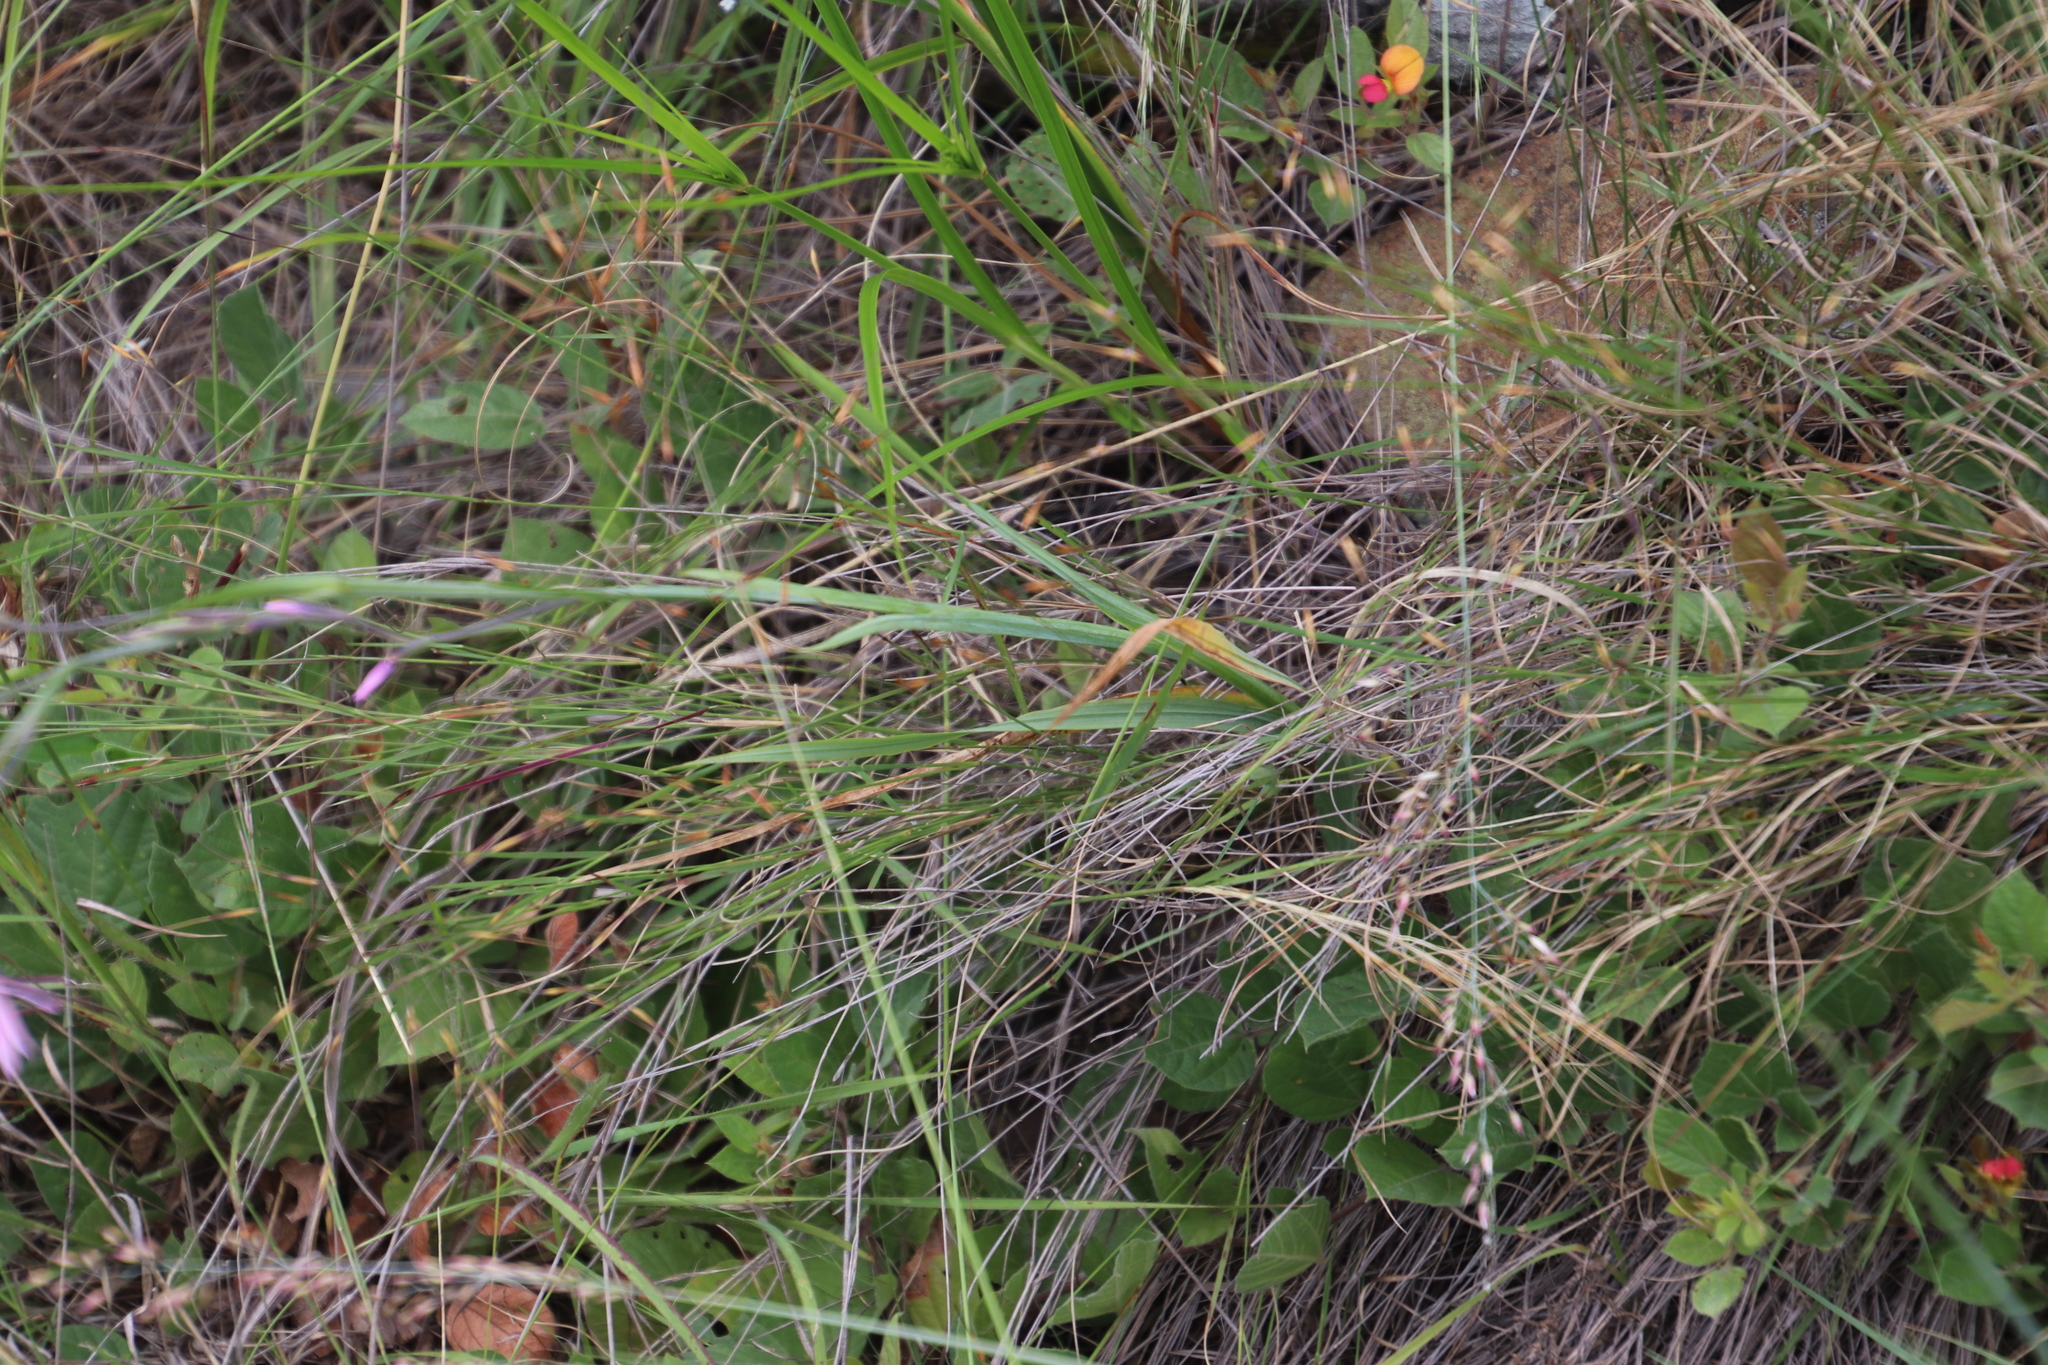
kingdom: Plantae
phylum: Tracheophyta
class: Liliopsida
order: Asparagales
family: Iridaceae
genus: Radinosiphon
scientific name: Radinosiphon leptostachya
